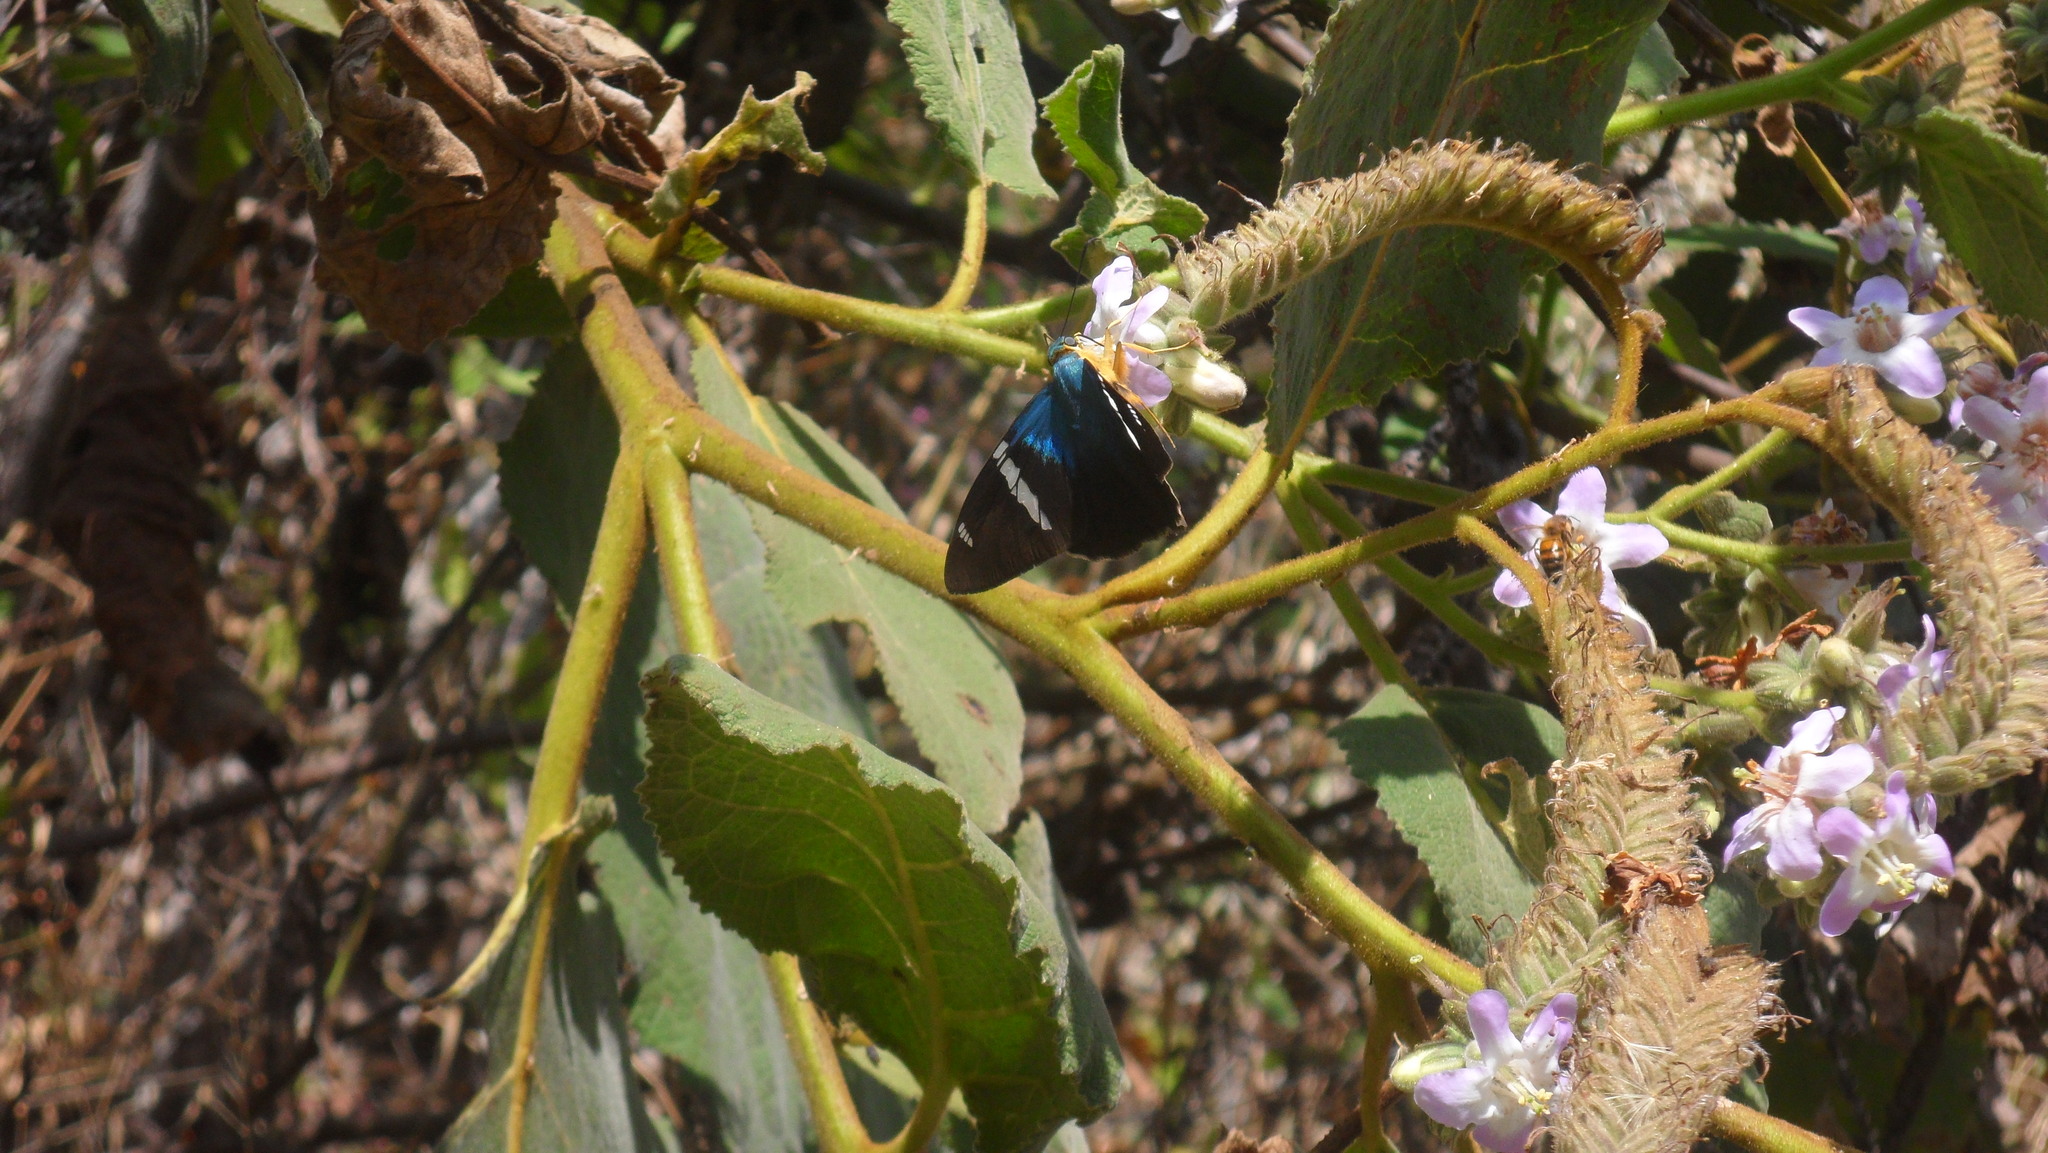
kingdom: Animalia
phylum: Arthropoda
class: Insecta
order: Lepidoptera
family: Hesperiidae
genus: Astraptes
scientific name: Astraptes fulgerator
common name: Two-barred flasher
